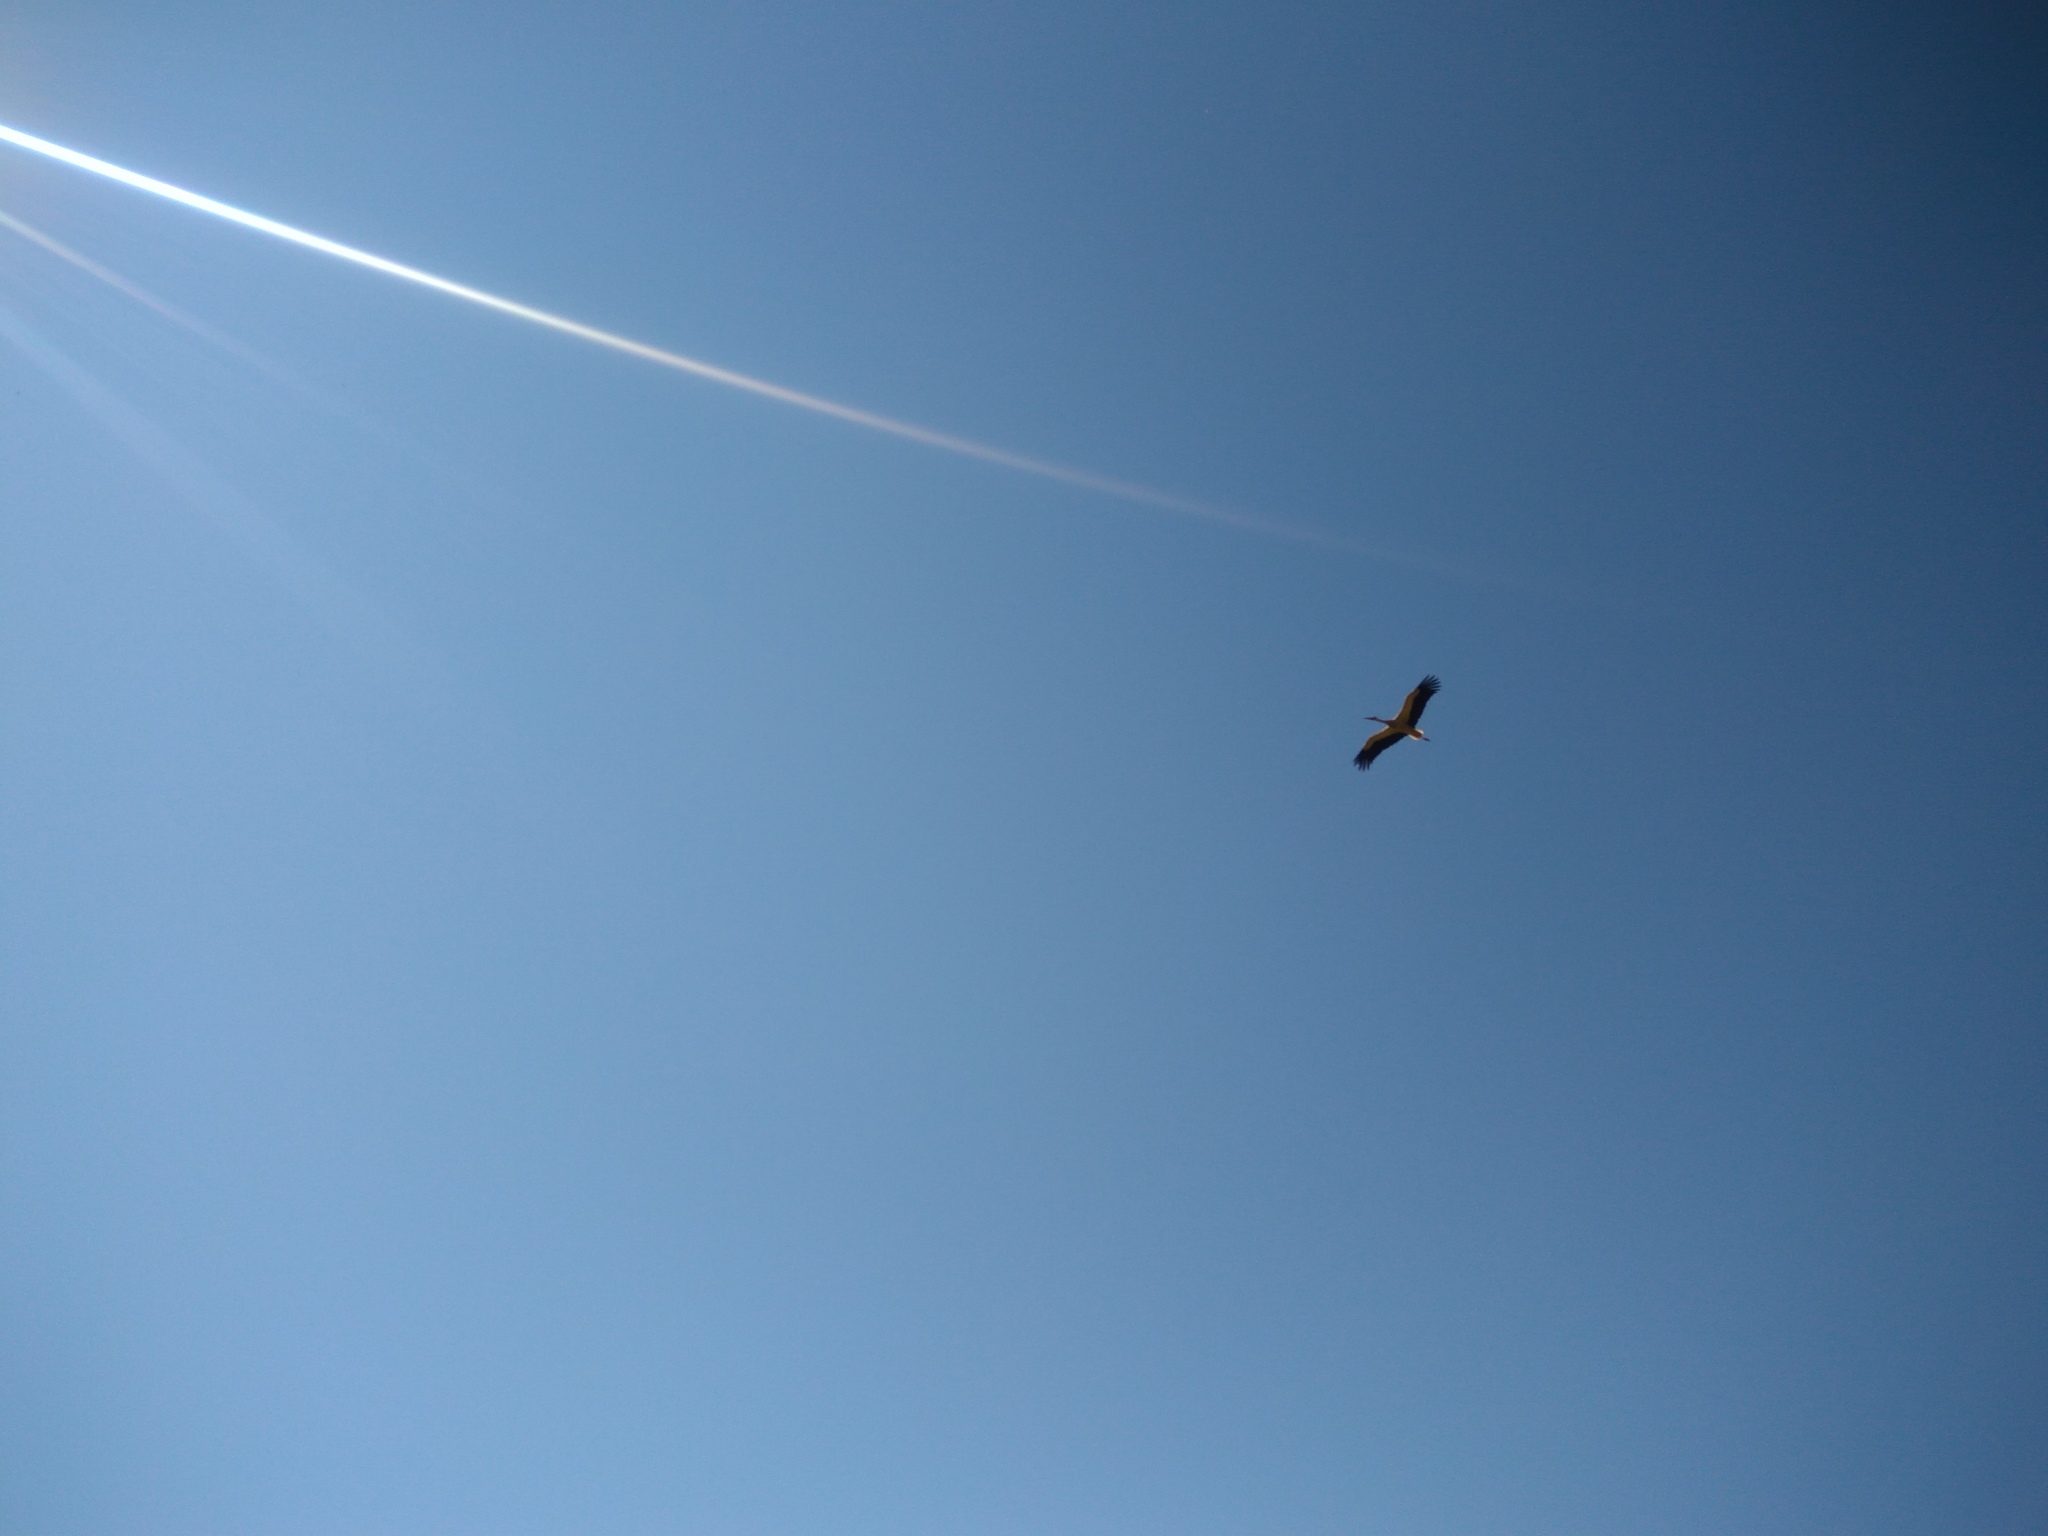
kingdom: Animalia
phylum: Chordata
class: Aves
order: Ciconiiformes
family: Ciconiidae
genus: Ciconia
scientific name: Ciconia ciconia
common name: White stork
